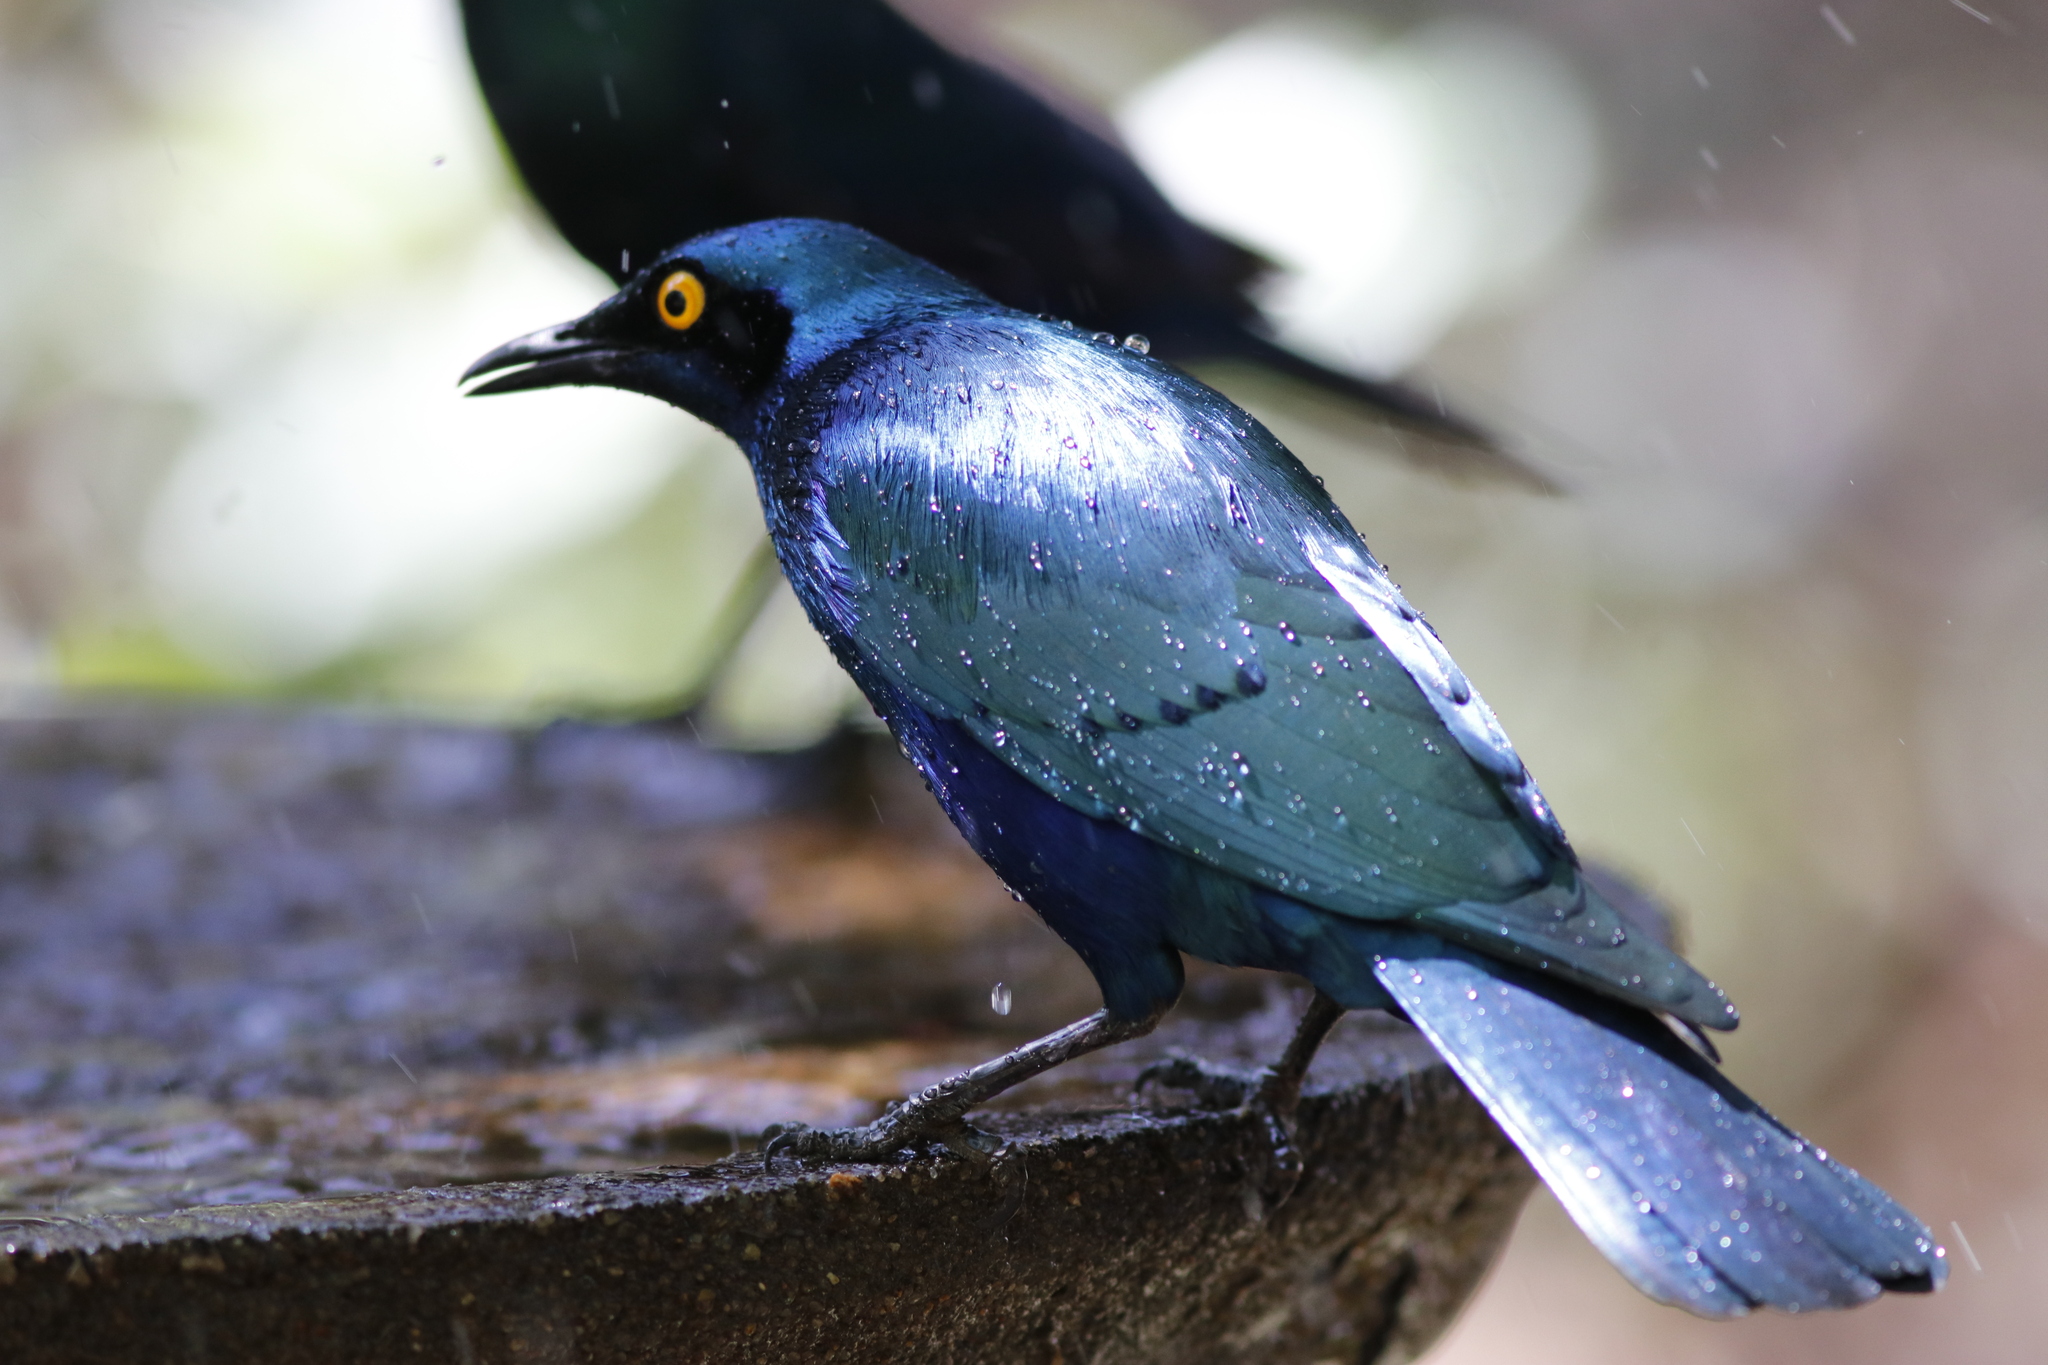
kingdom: Animalia
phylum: Chordata
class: Aves
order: Passeriformes
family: Sturnidae
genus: Lamprotornis
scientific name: Lamprotornis chalybaeus
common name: Greater blue-eared starling
